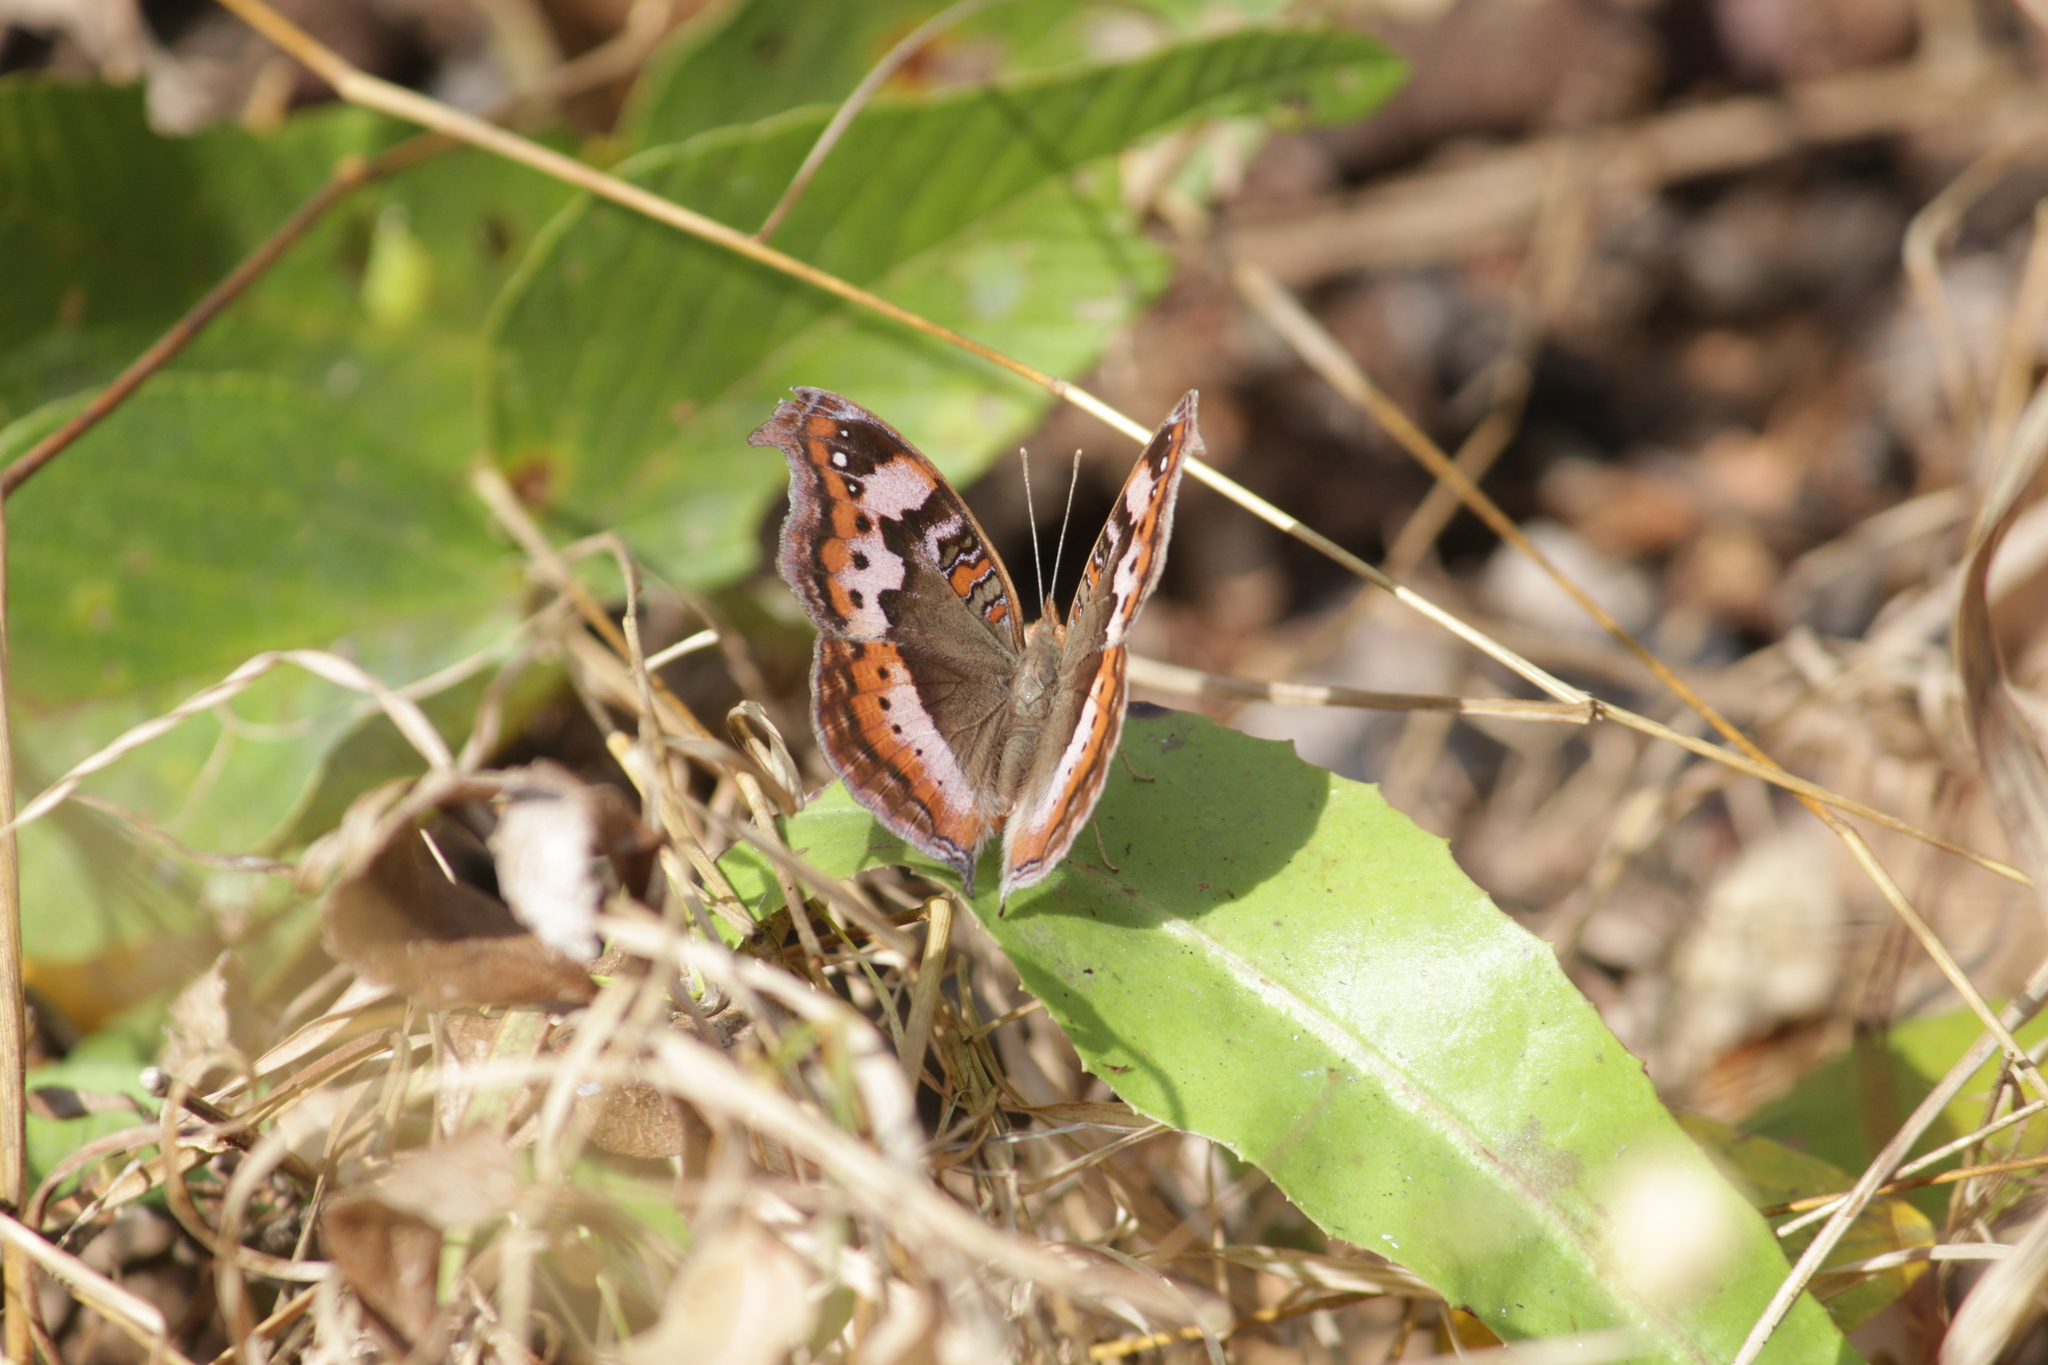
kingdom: Animalia
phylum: Arthropoda
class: Insecta
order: Lepidoptera
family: Nymphalidae
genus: Precis
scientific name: Precis actia
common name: Air commodore
